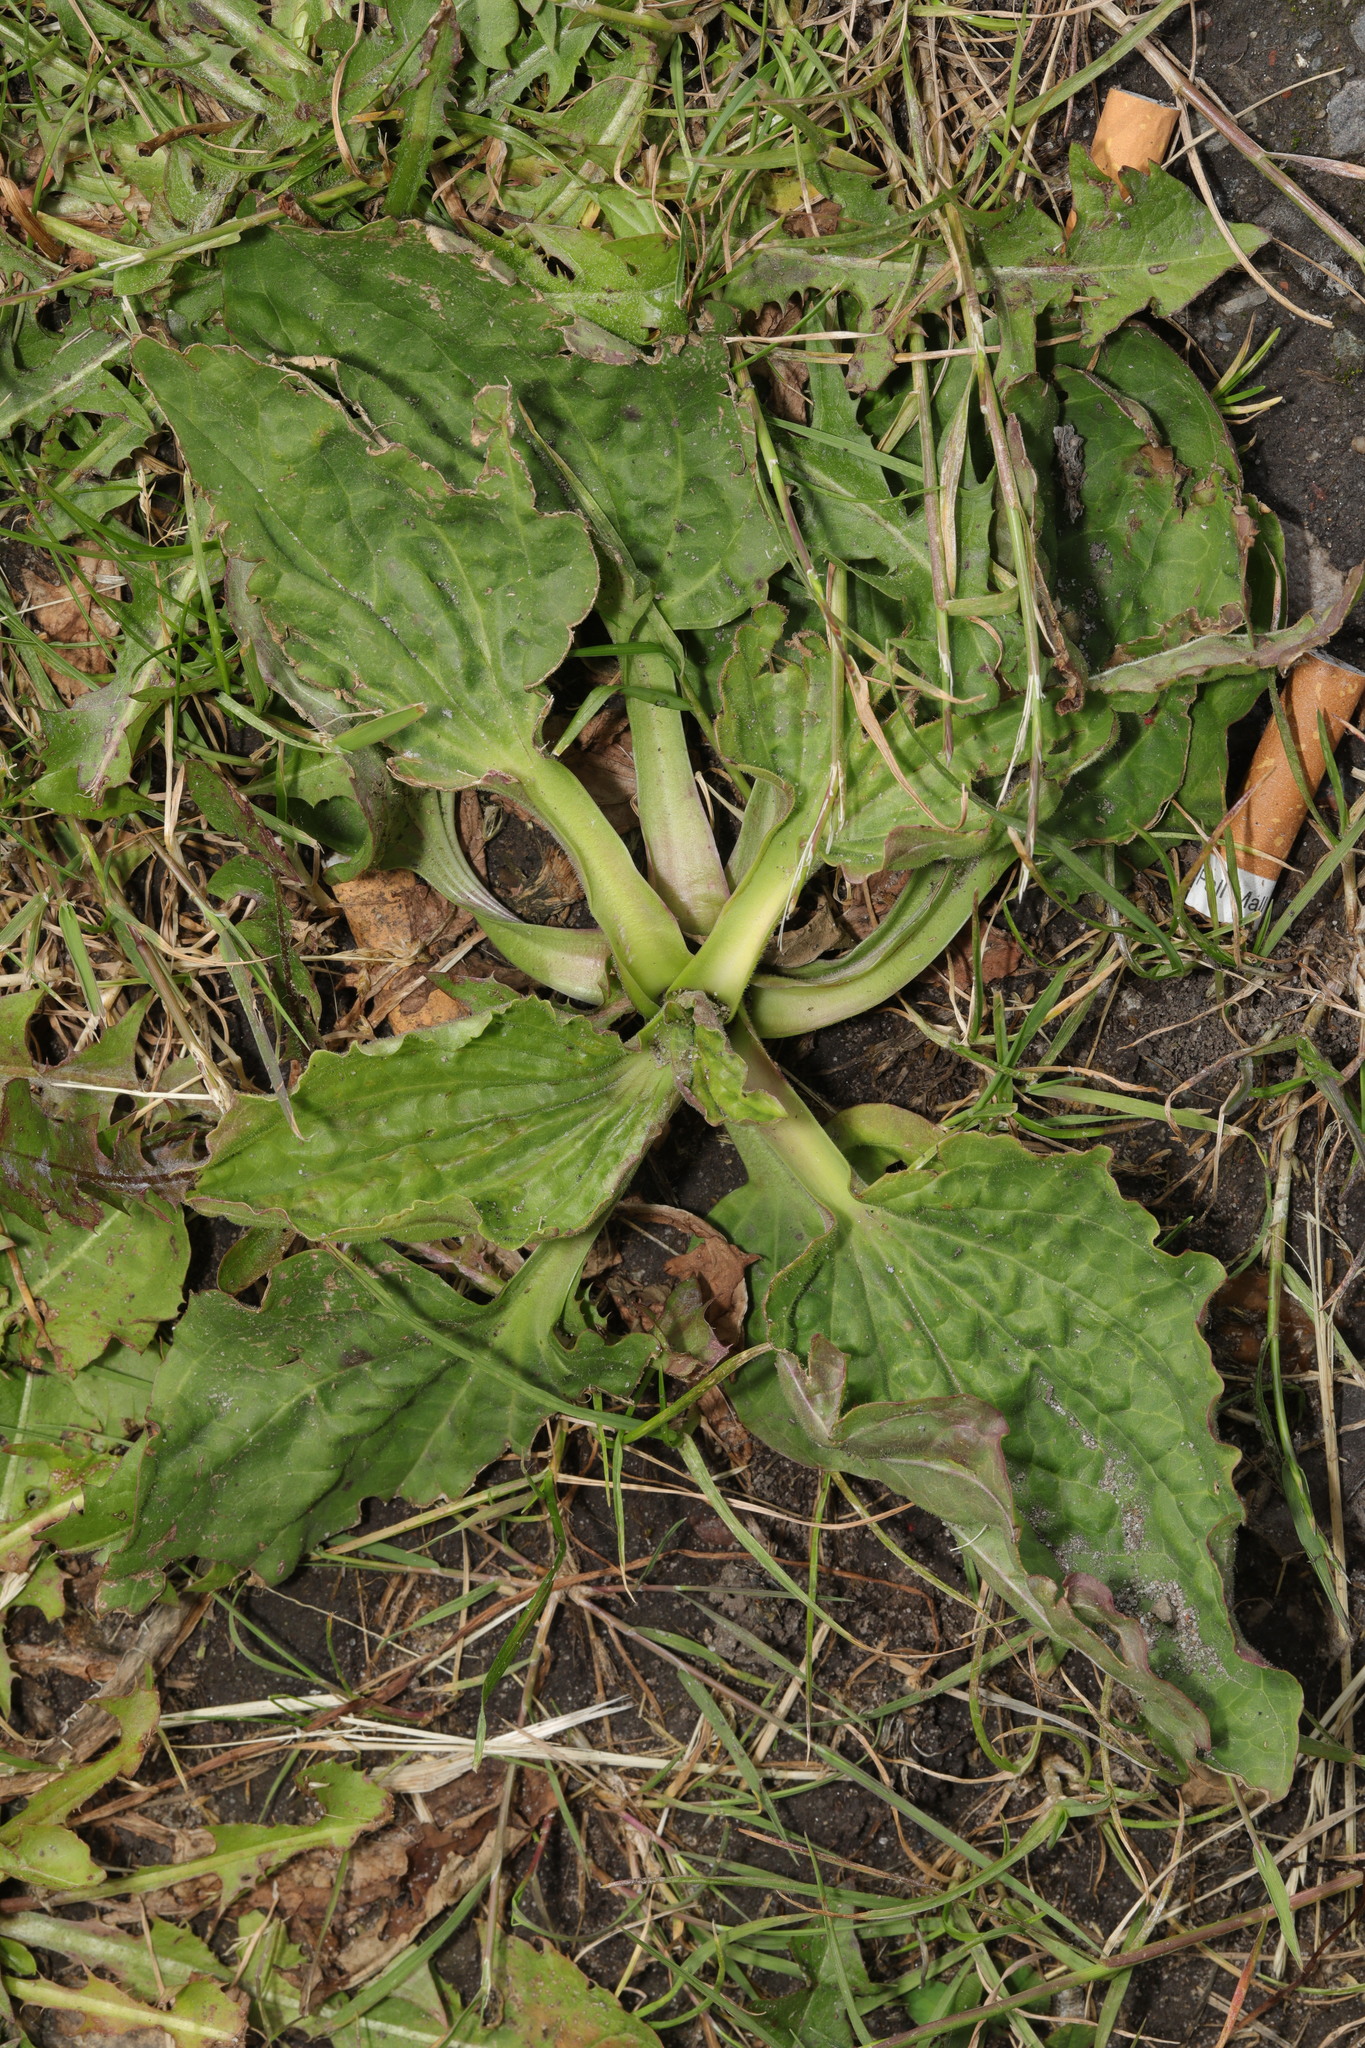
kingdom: Plantae
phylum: Tracheophyta
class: Magnoliopsida
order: Lamiales
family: Plantaginaceae
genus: Plantago
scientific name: Plantago major
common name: Common plantain
